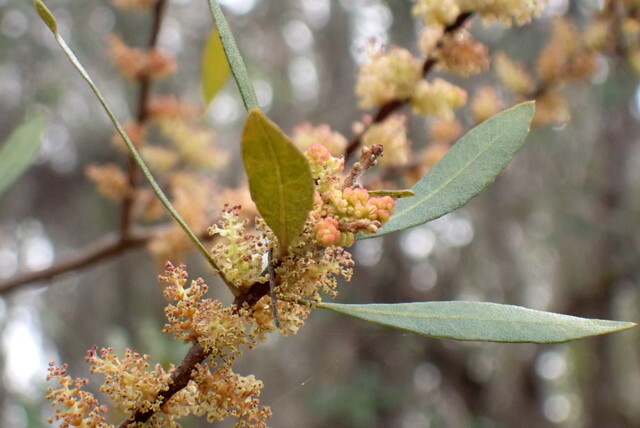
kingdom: Plantae
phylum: Tracheophyta
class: Magnoliopsida
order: Fagales
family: Myricaceae
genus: Morella
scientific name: Morella cerifera
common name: Wax myrtle
